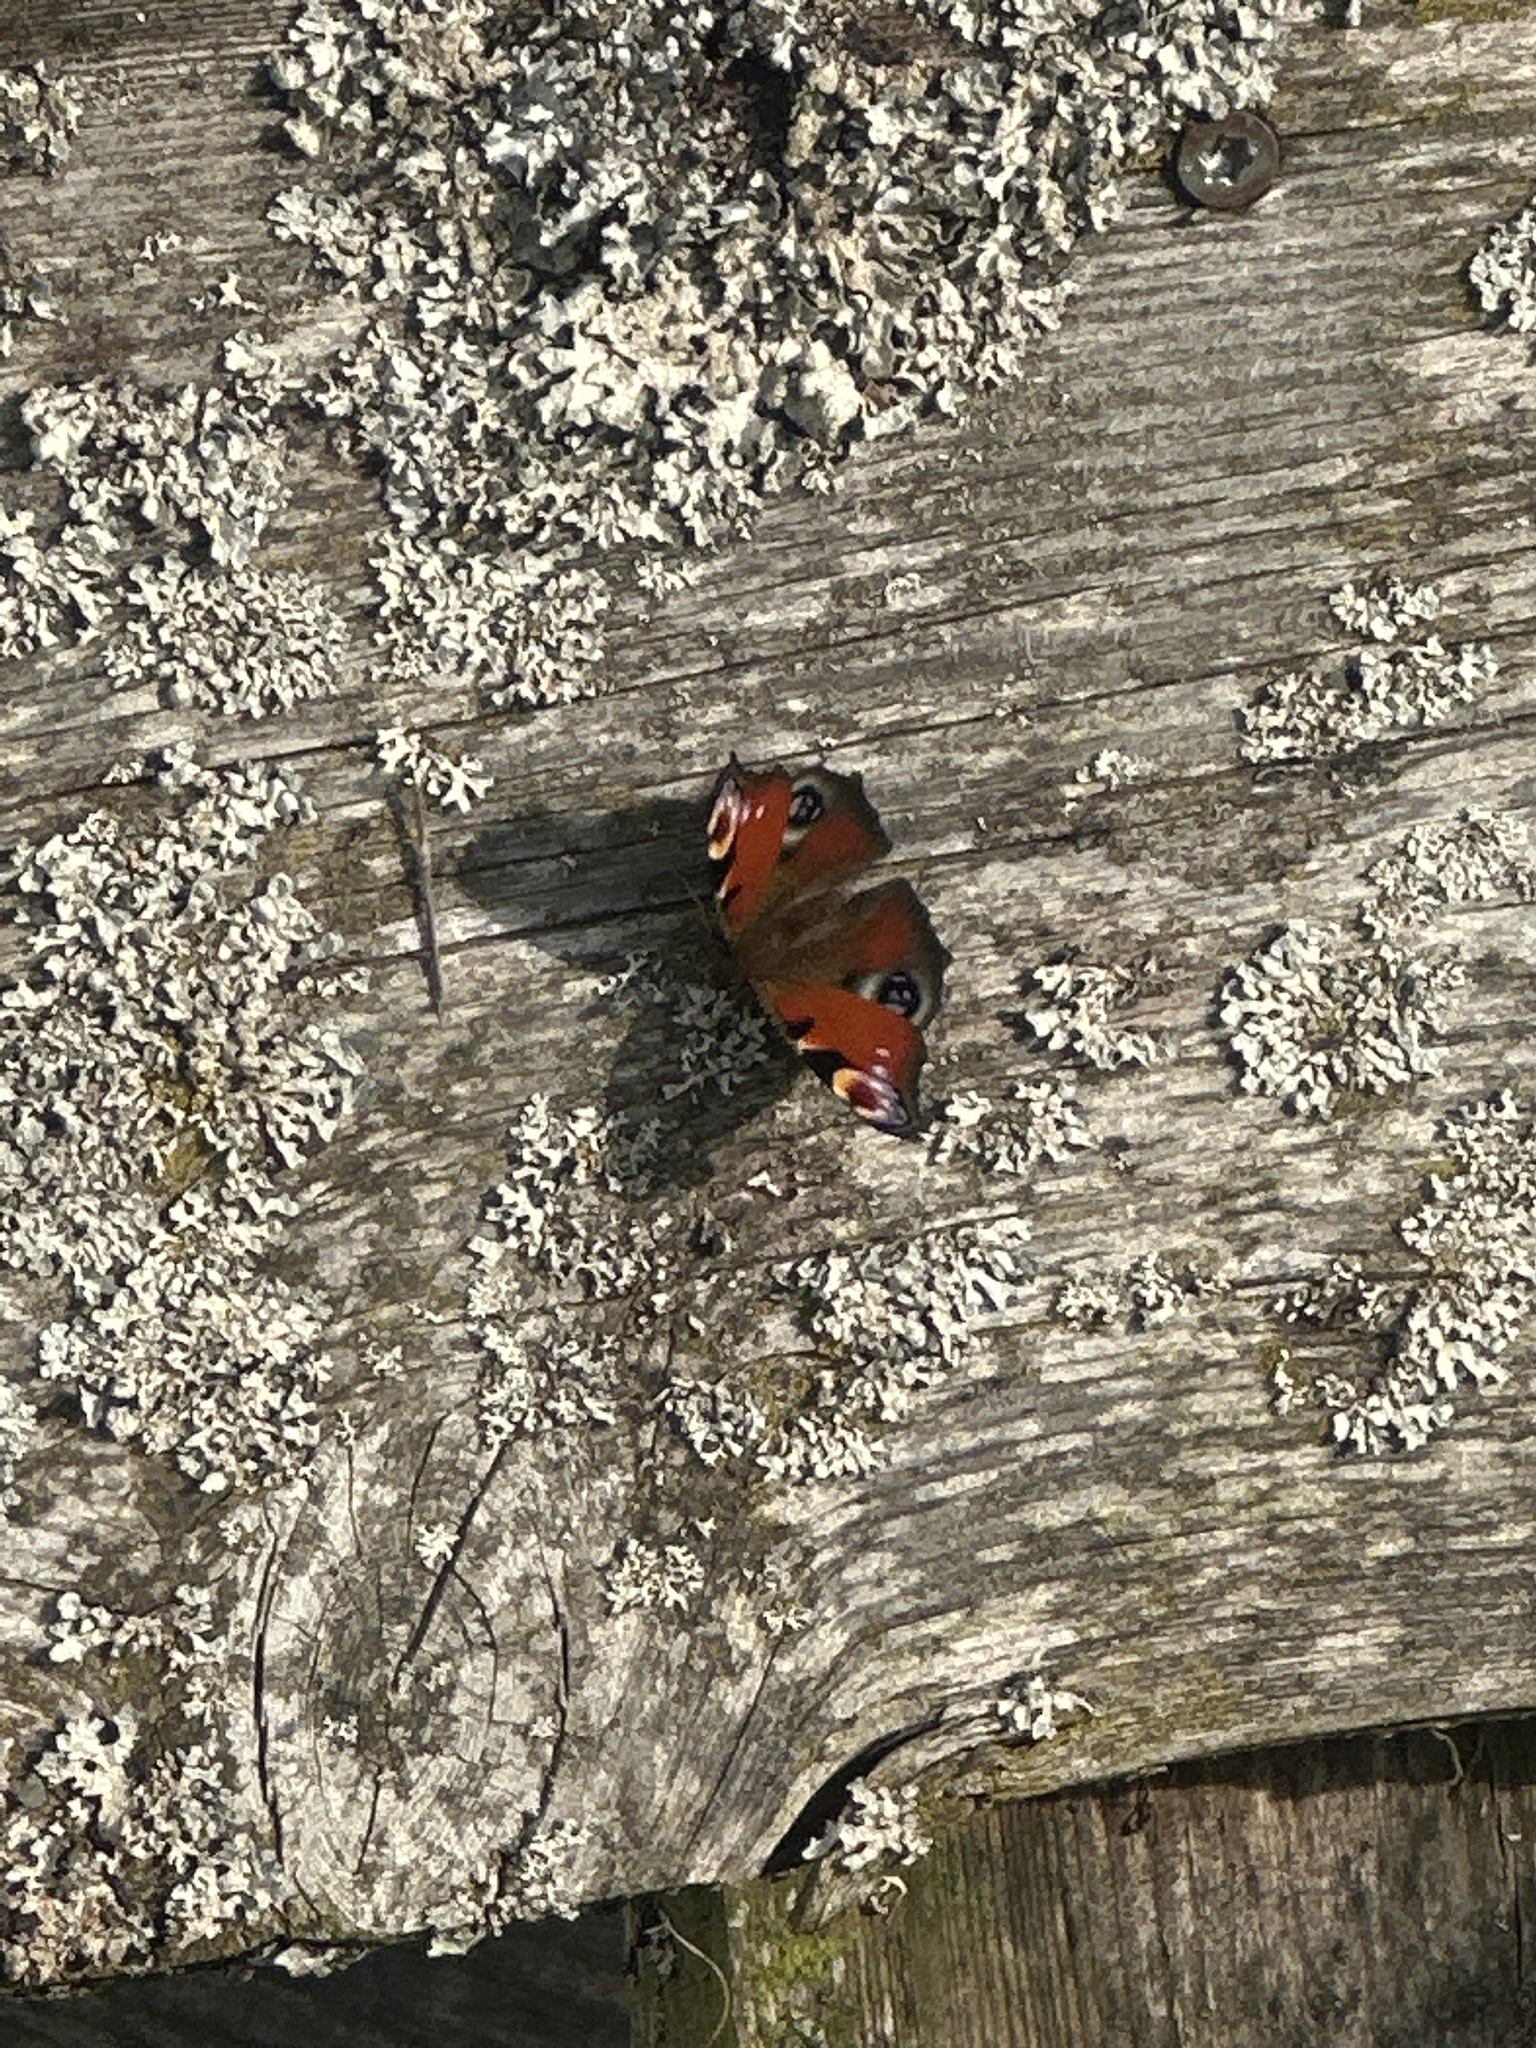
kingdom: Animalia
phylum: Arthropoda
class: Insecta
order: Lepidoptera
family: Nymphalidae
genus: Aglais
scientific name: Aglais io
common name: Peacock
